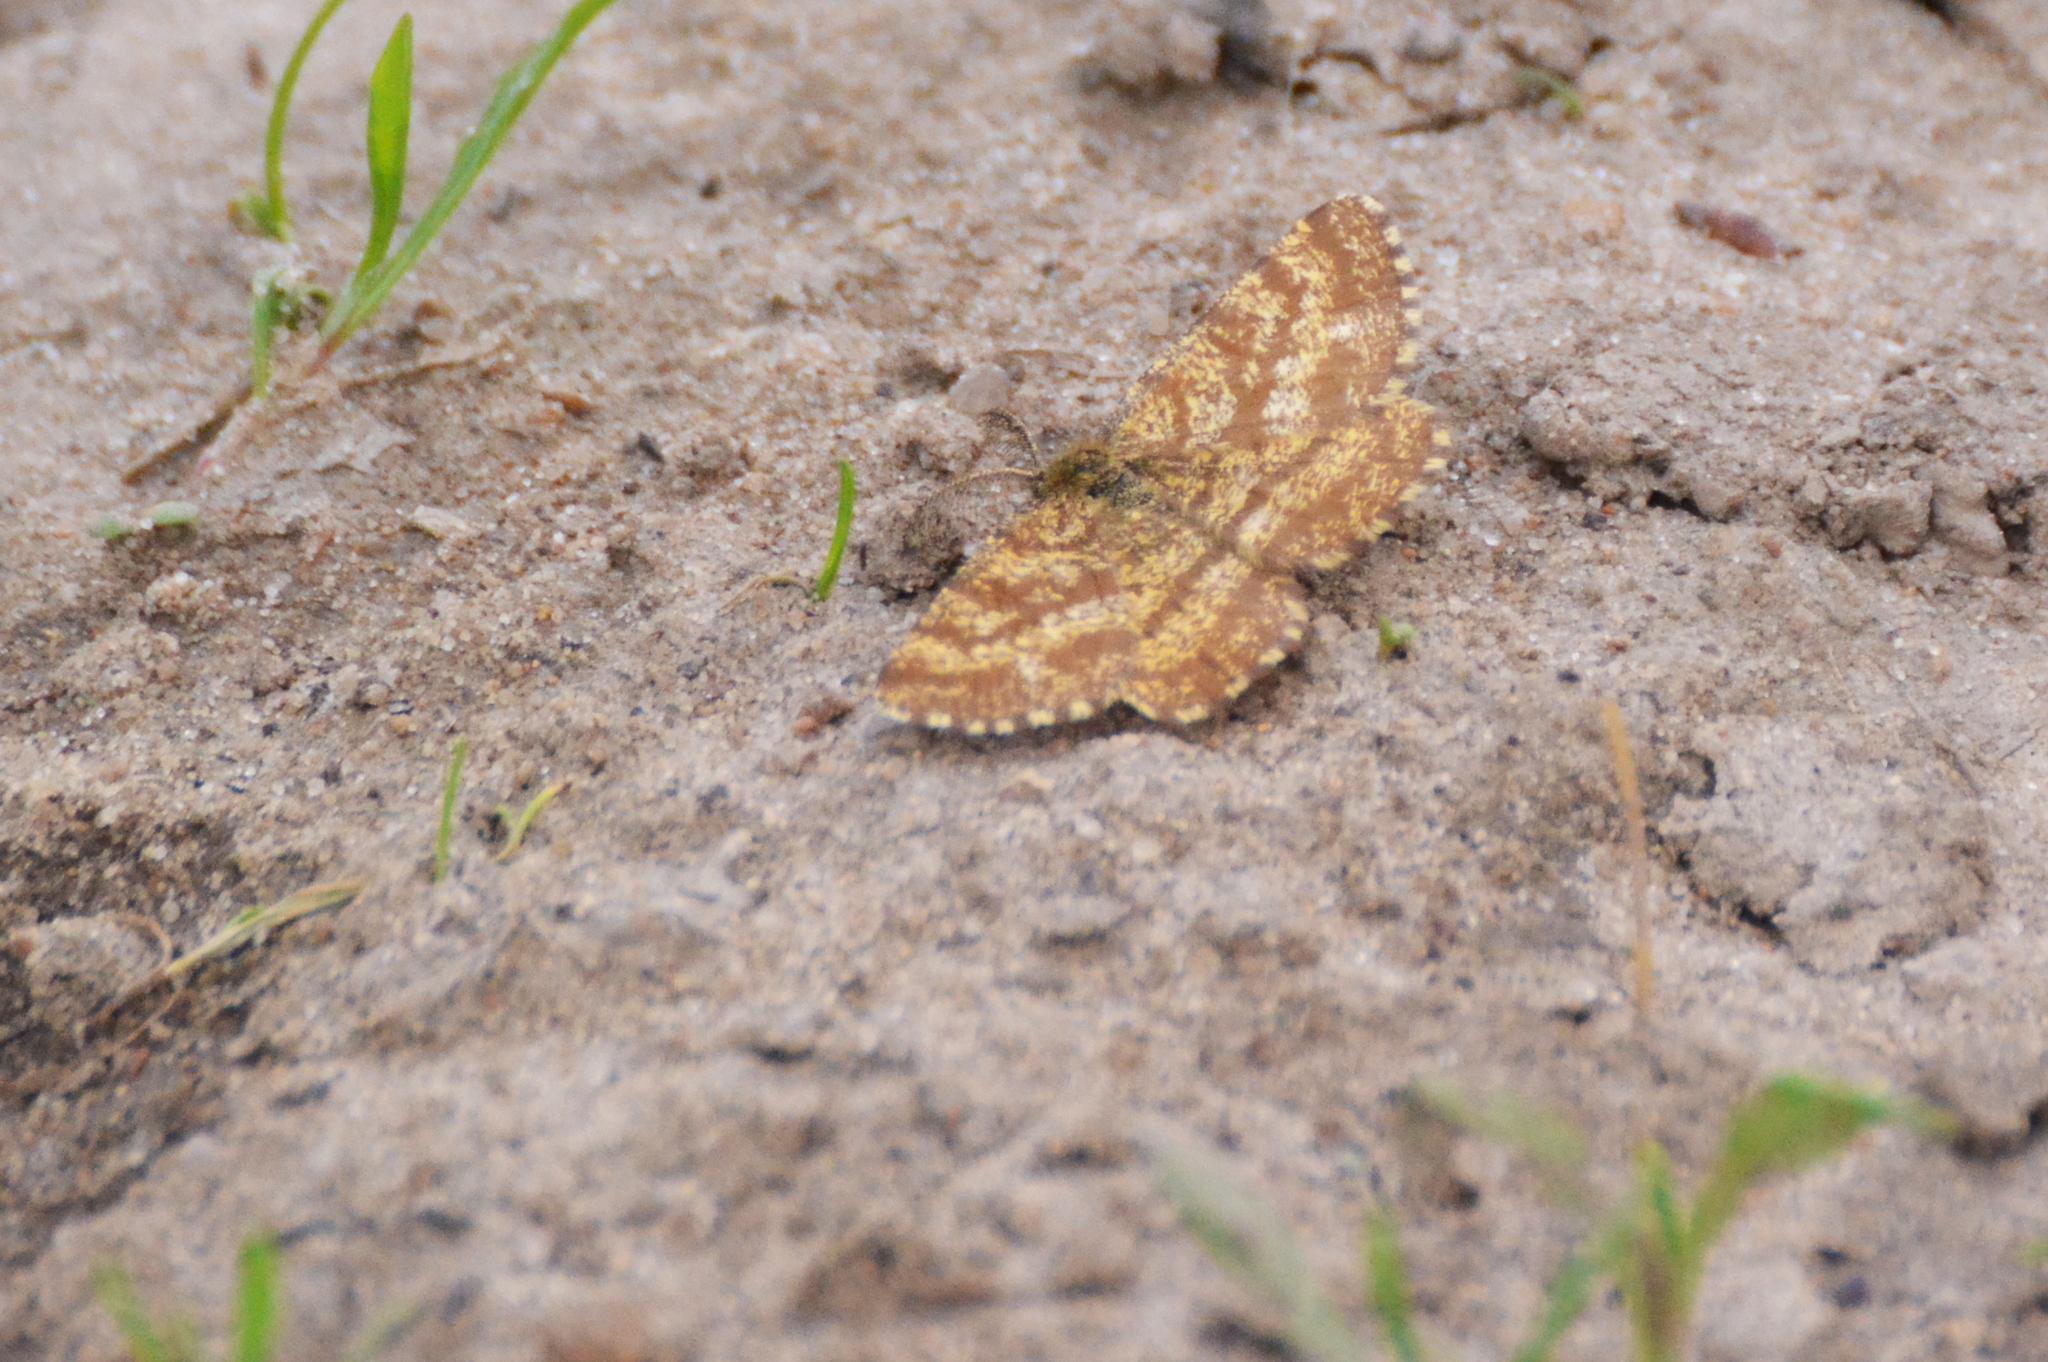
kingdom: Animalia
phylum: Arthropoda
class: Insecta
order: Lepidoptera
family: Geometridae
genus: Ematurga
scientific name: Ematurga atomaria
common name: Common heath
